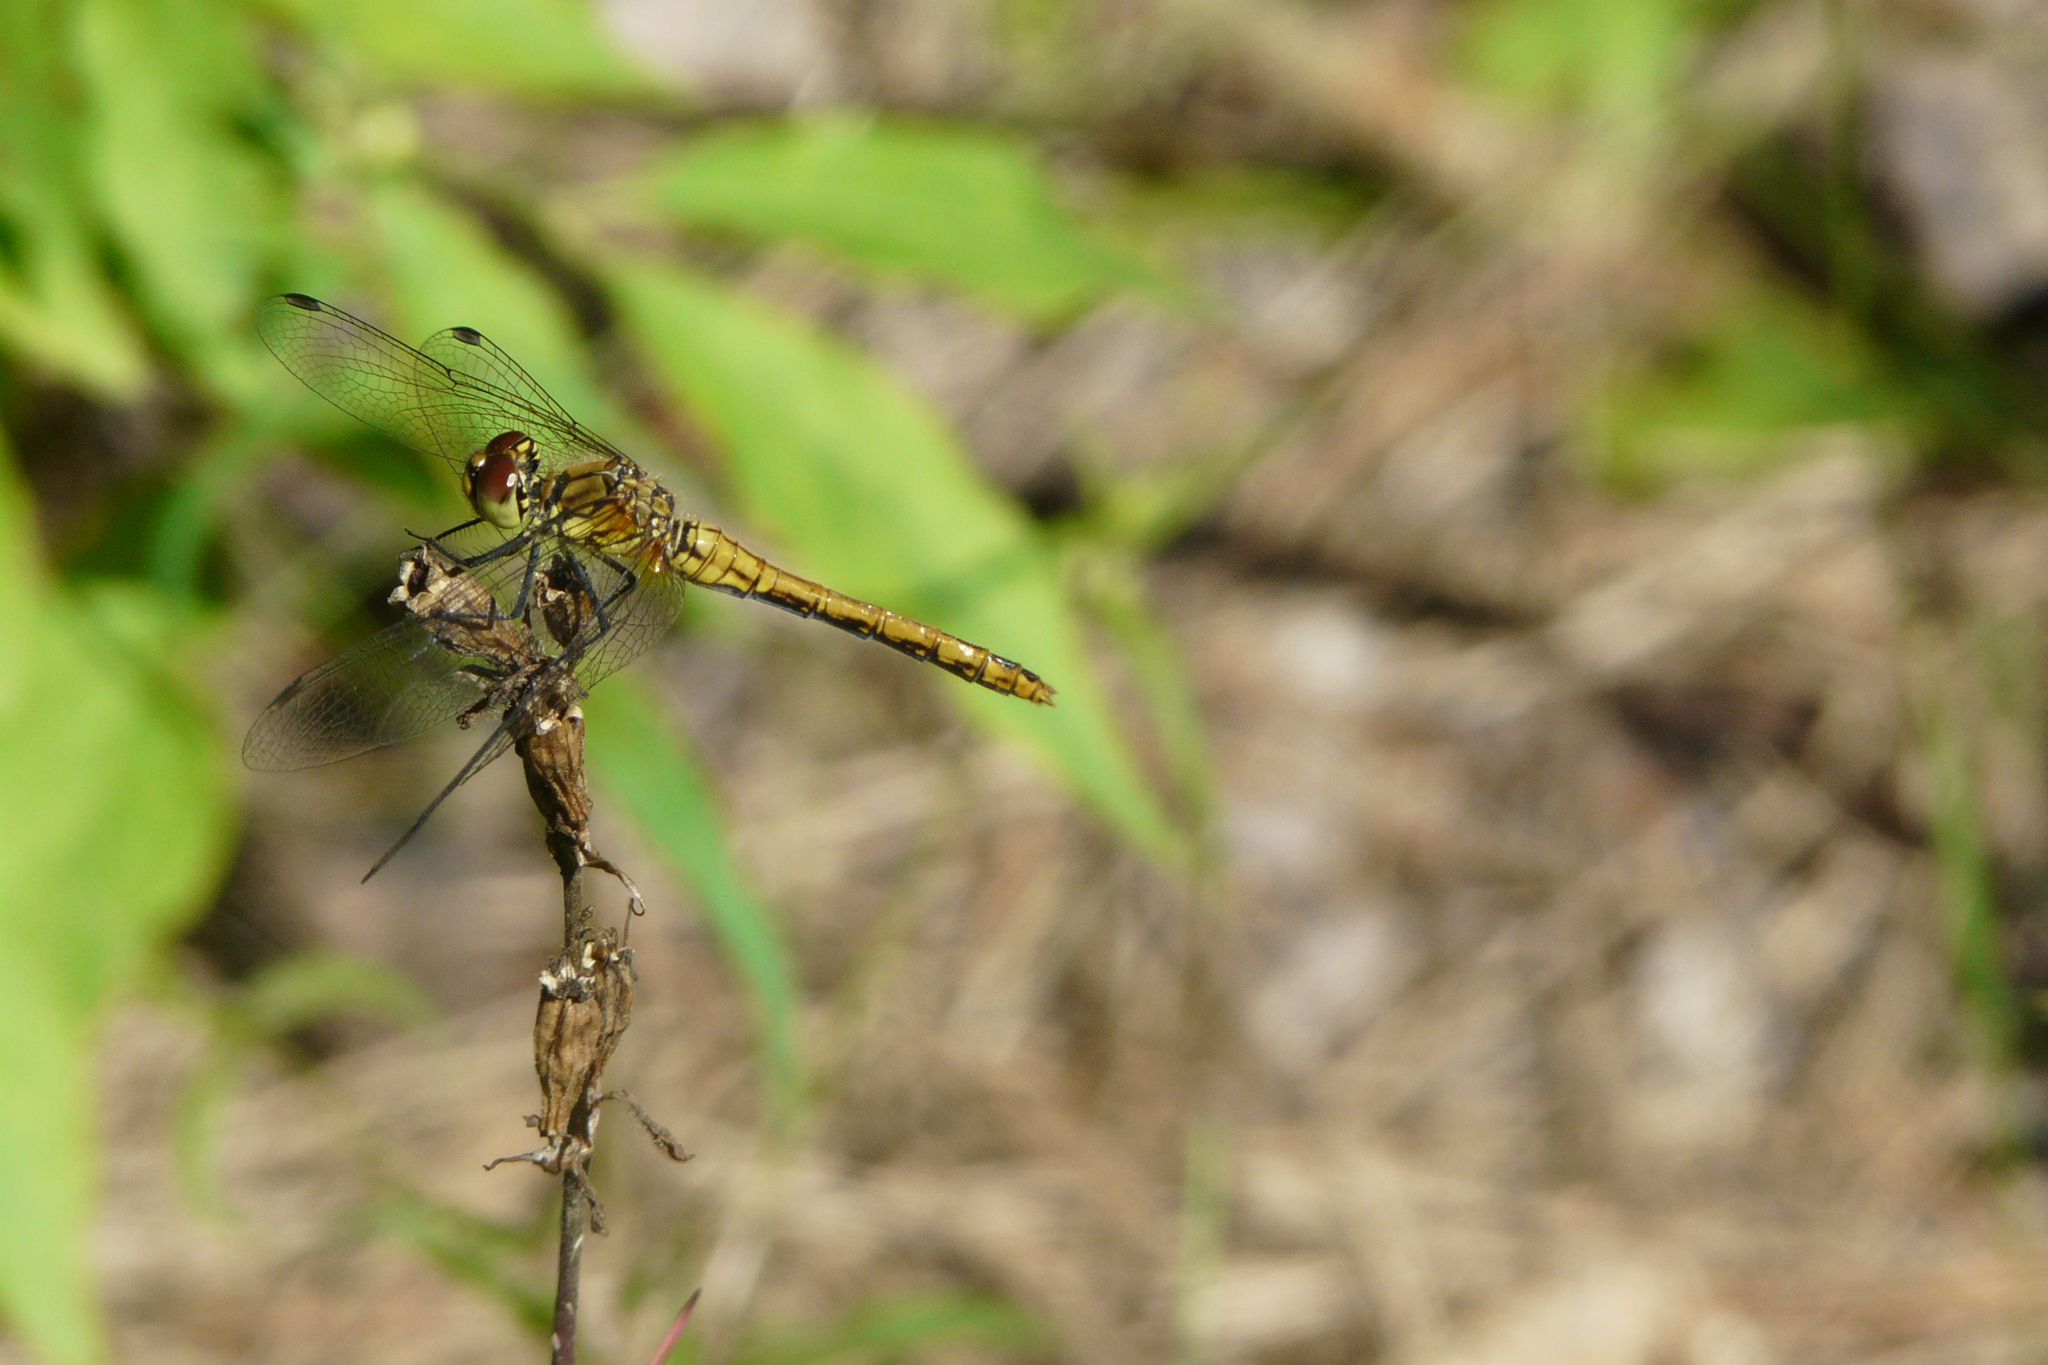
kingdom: Animalia
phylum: Arthropoda
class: Insecta
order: Odonata
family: Libellulidae
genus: Sympetrum
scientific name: Sympetrum sanguineum
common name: Ruddy darter
